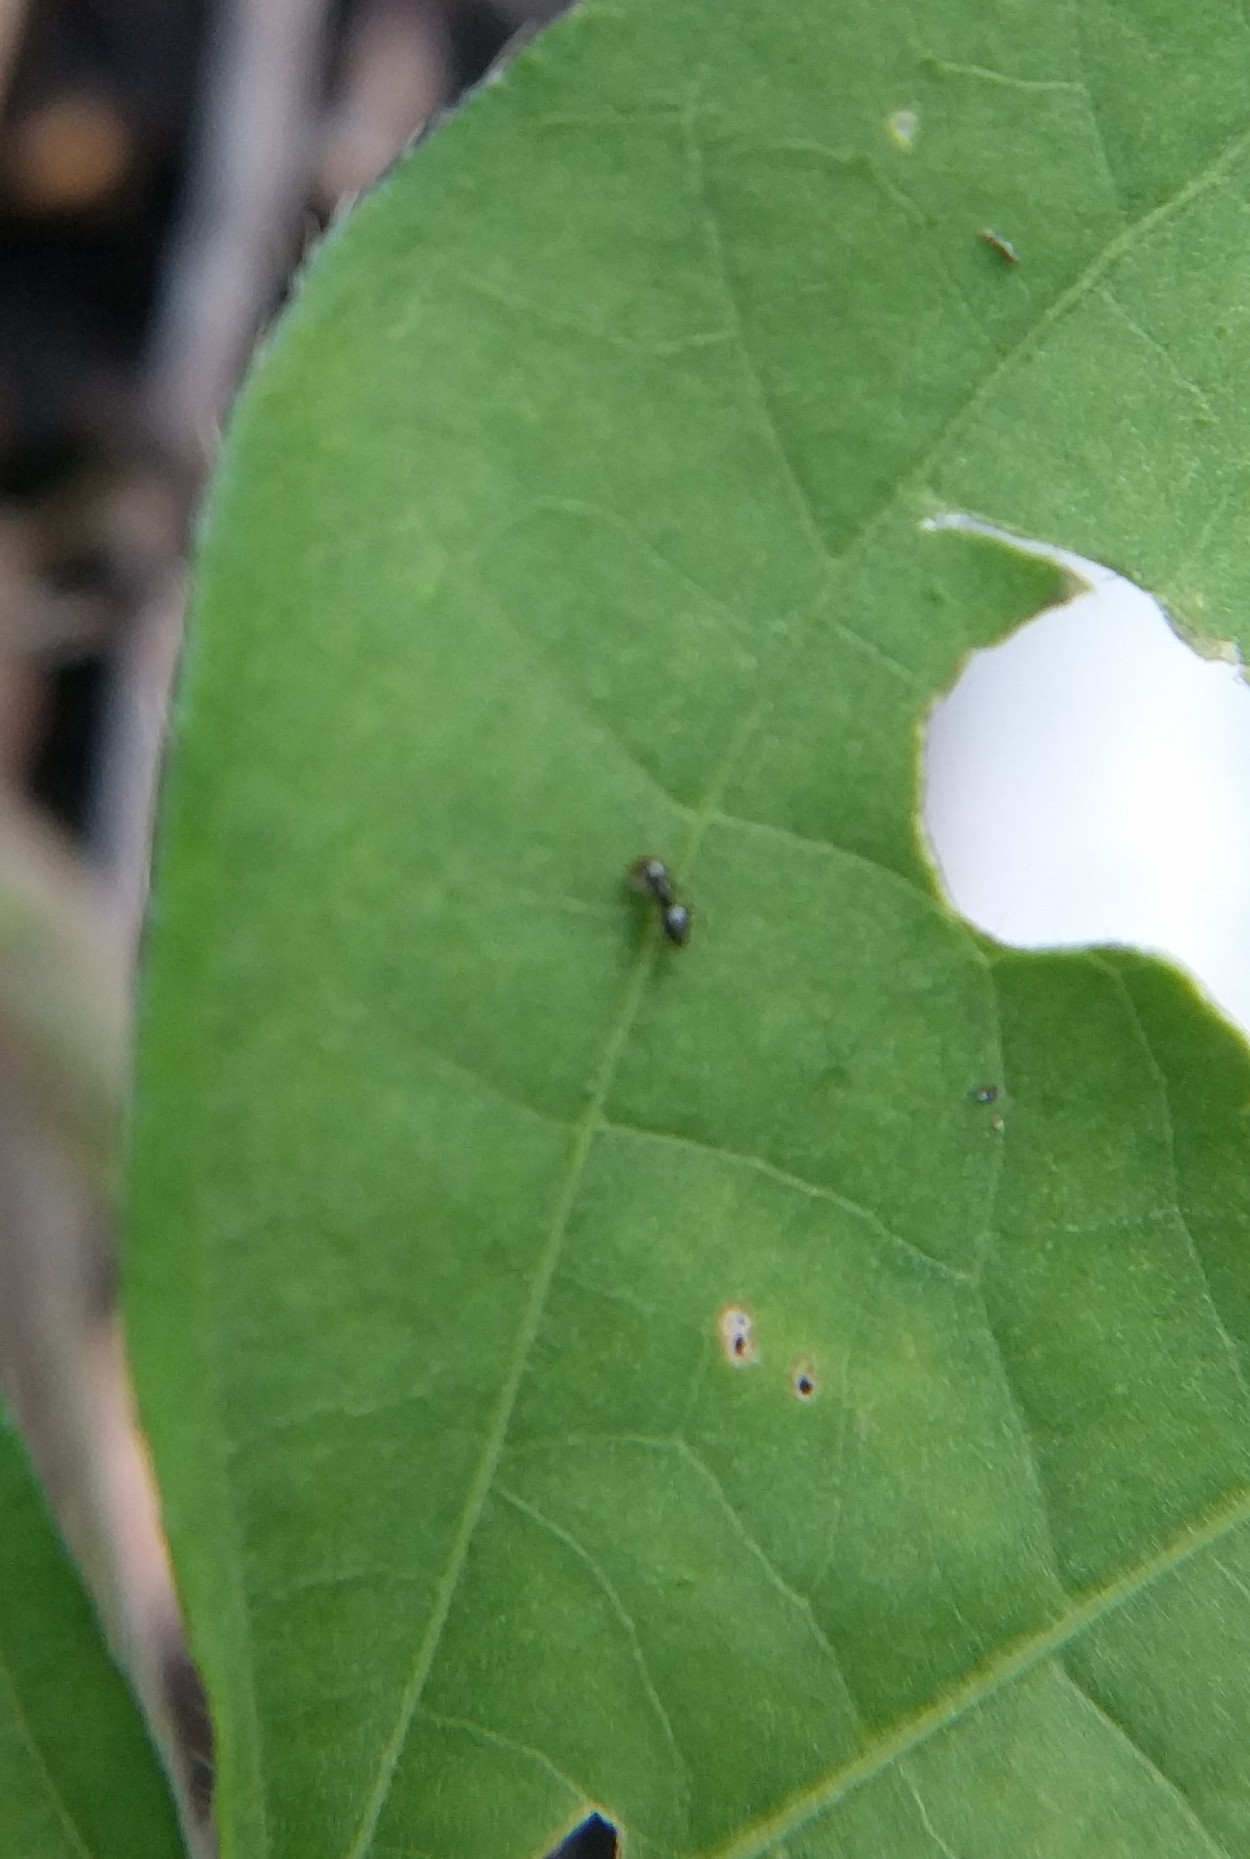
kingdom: Animalia
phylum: Arthropoda
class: Insecta
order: Hymenoptera
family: Formicidae
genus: Brachymyrmex
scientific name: Brachymyrmex patagonicus
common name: Dark rover ant
